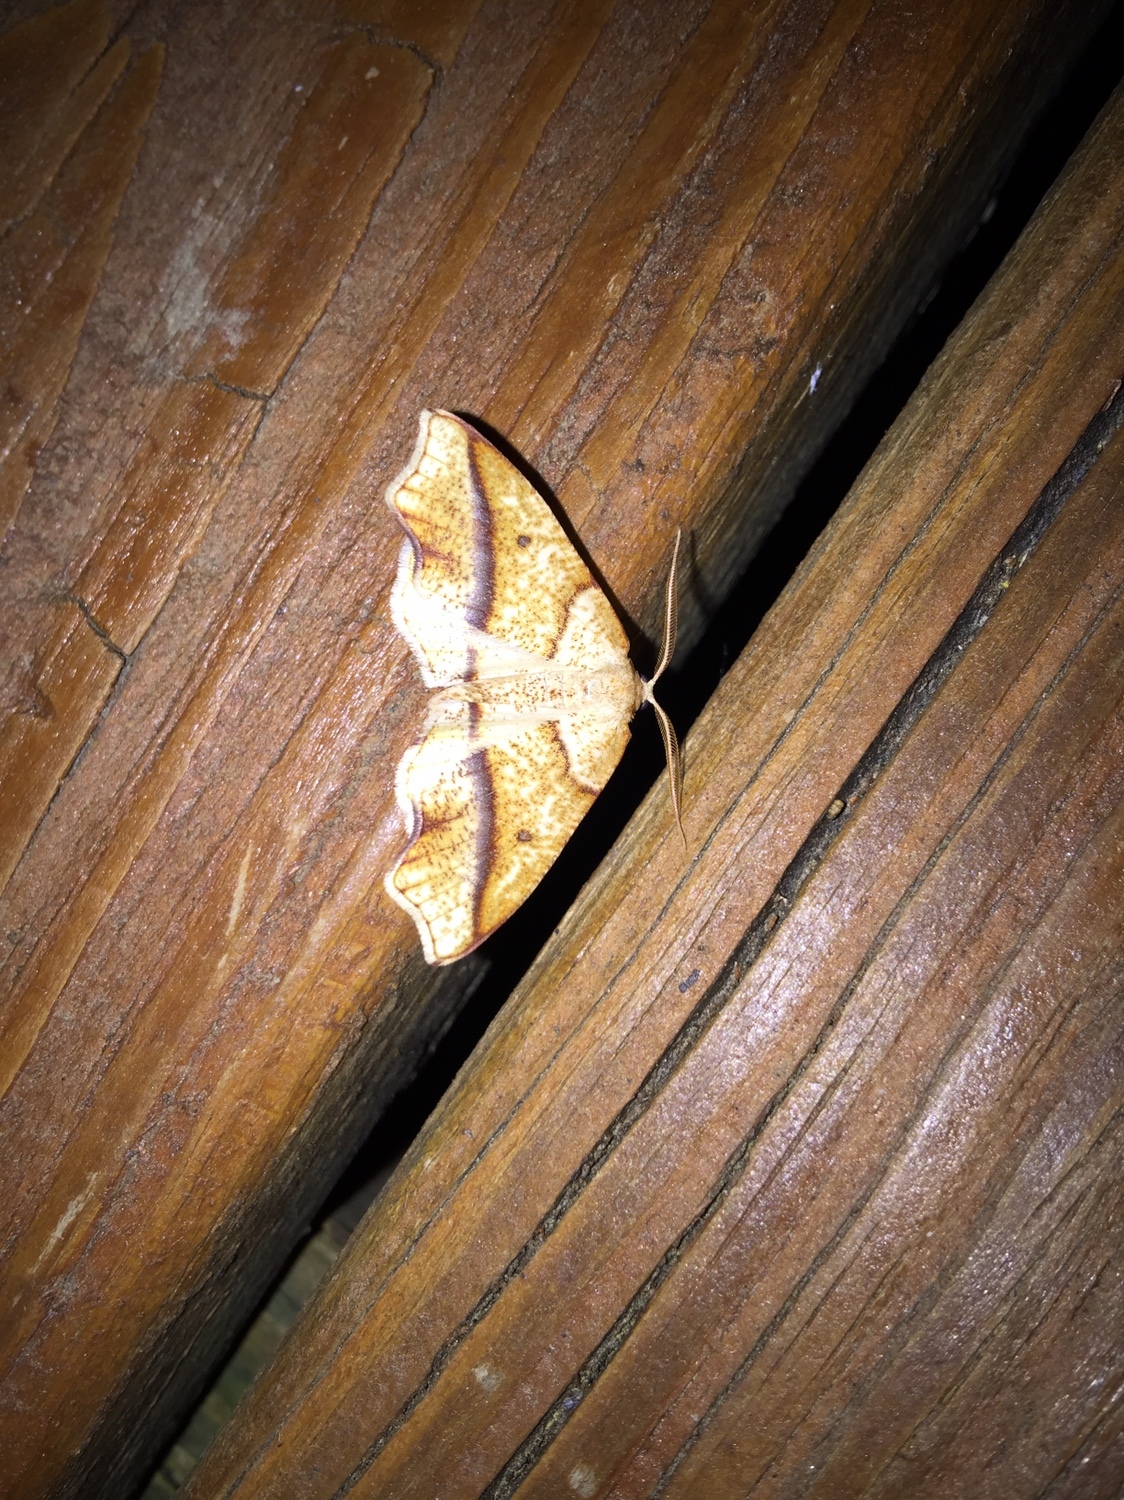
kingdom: Animalia
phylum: Arthropoda
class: Insecta
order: Lepidoptera
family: Geometridae
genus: Plagodis
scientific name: Plagodis alcoolaria
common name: Hollow-spotted plagodis
